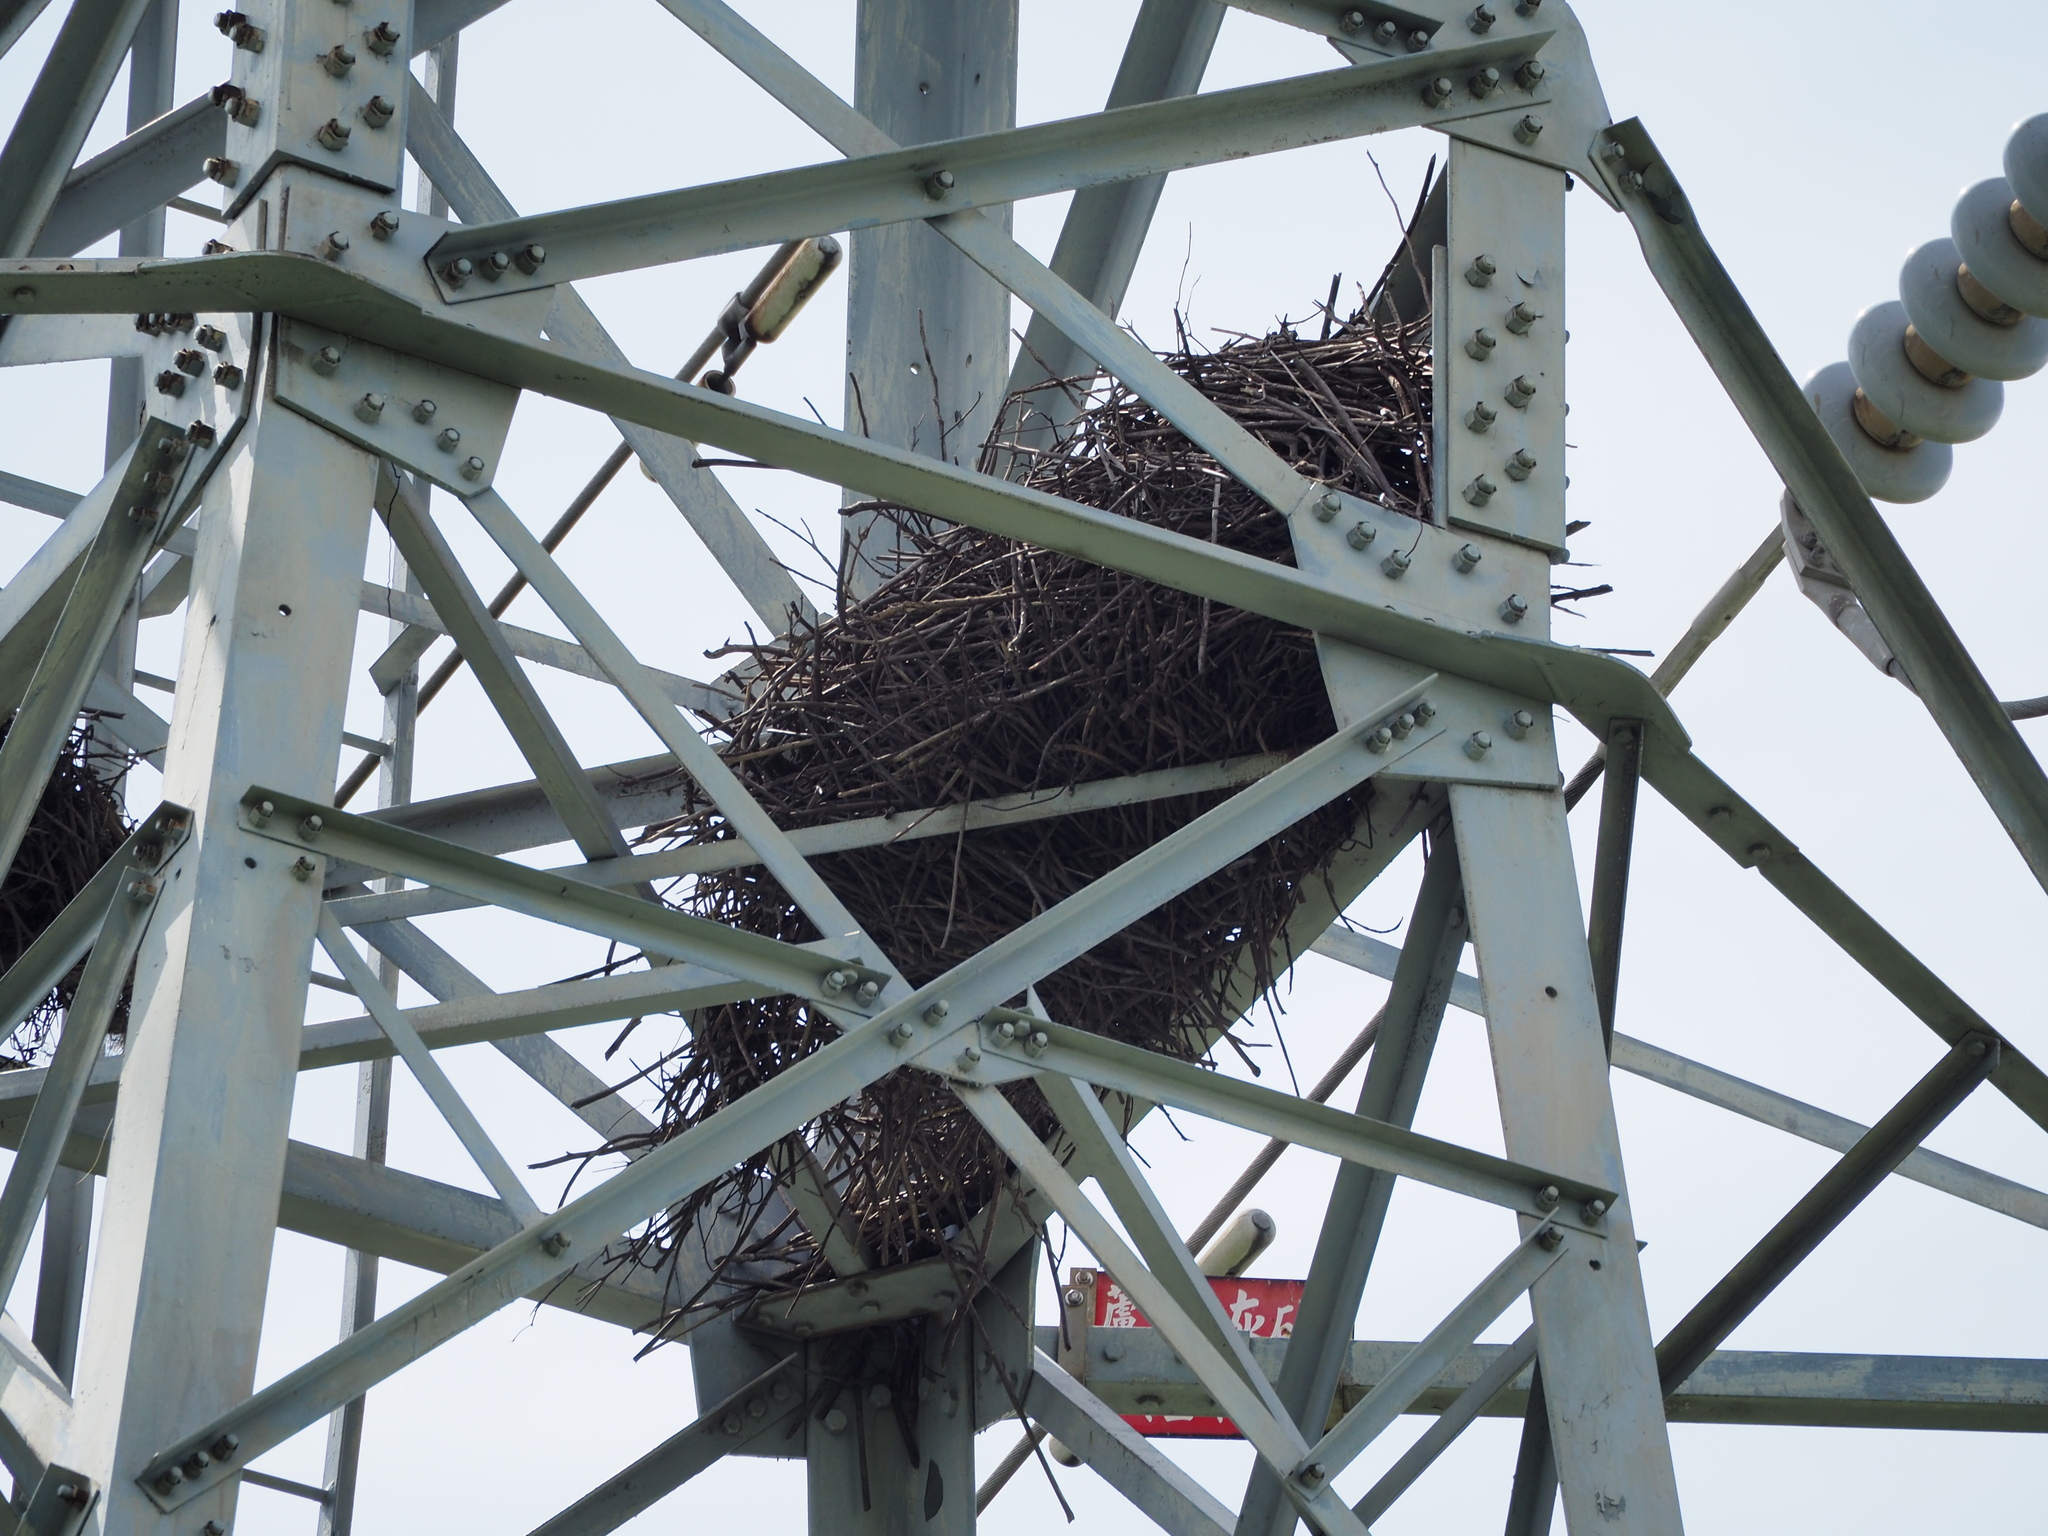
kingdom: Animalia
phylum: Chordata
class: Aves
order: Passeriformes
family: Corvidae
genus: Dendrocitta
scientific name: Dendrocitta formosae
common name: Grey treepie
